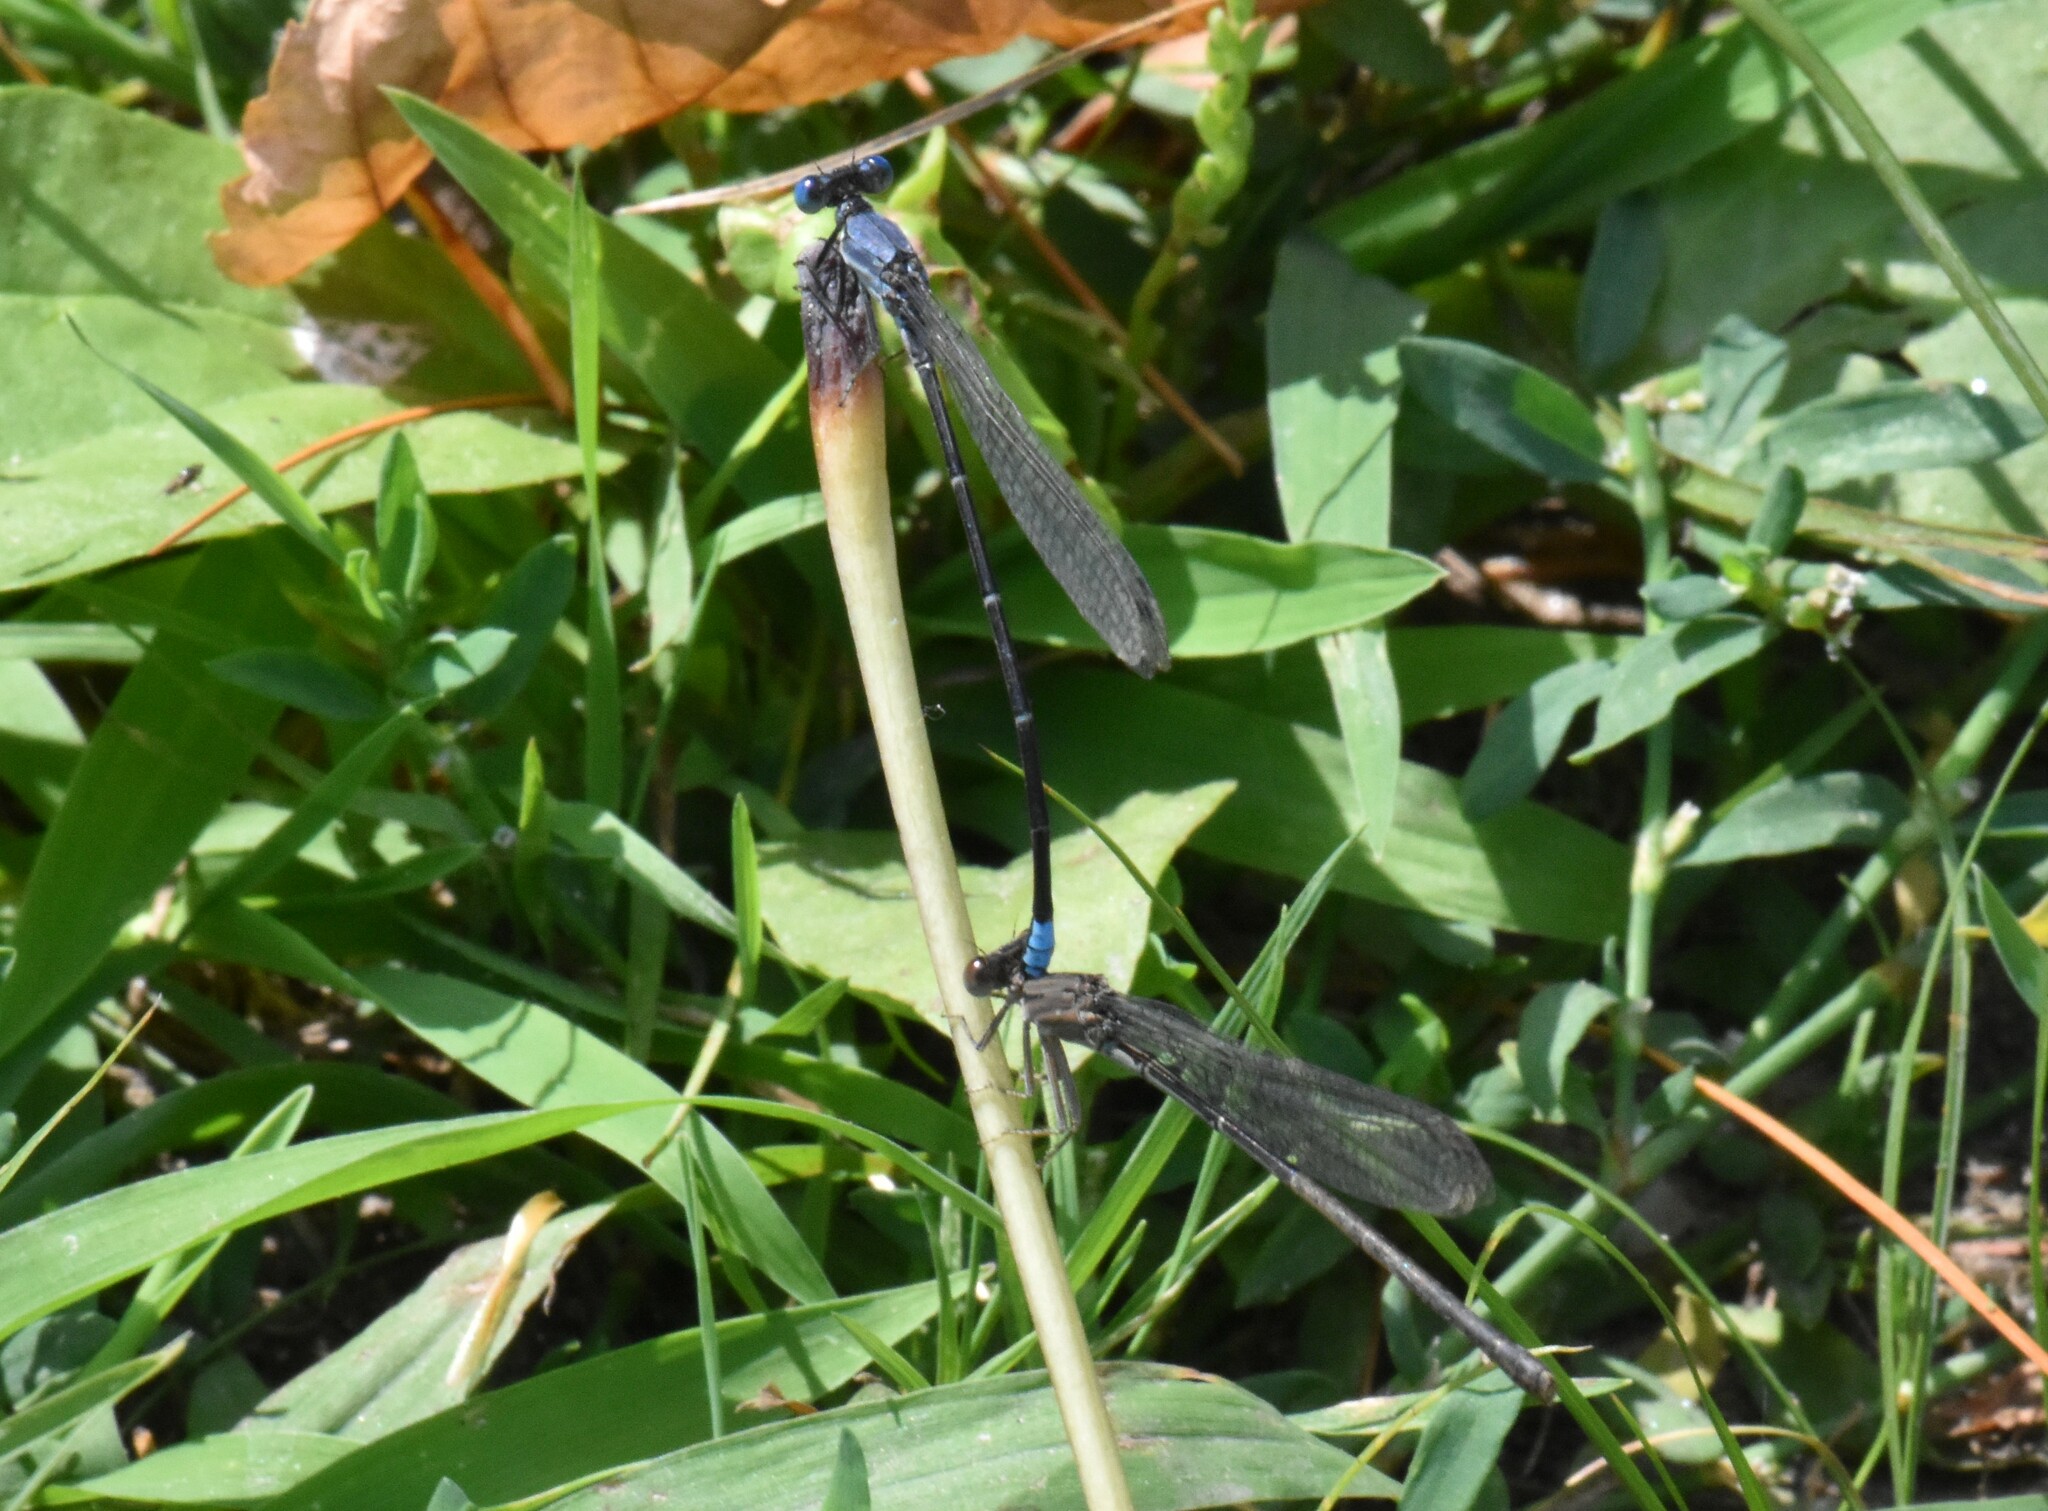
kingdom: Animalia
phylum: Arthropoda
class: Insecta
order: Odonata
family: Coenagrionidae
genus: Argia
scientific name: Argia apicalis
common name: Blue-fronted dancer
